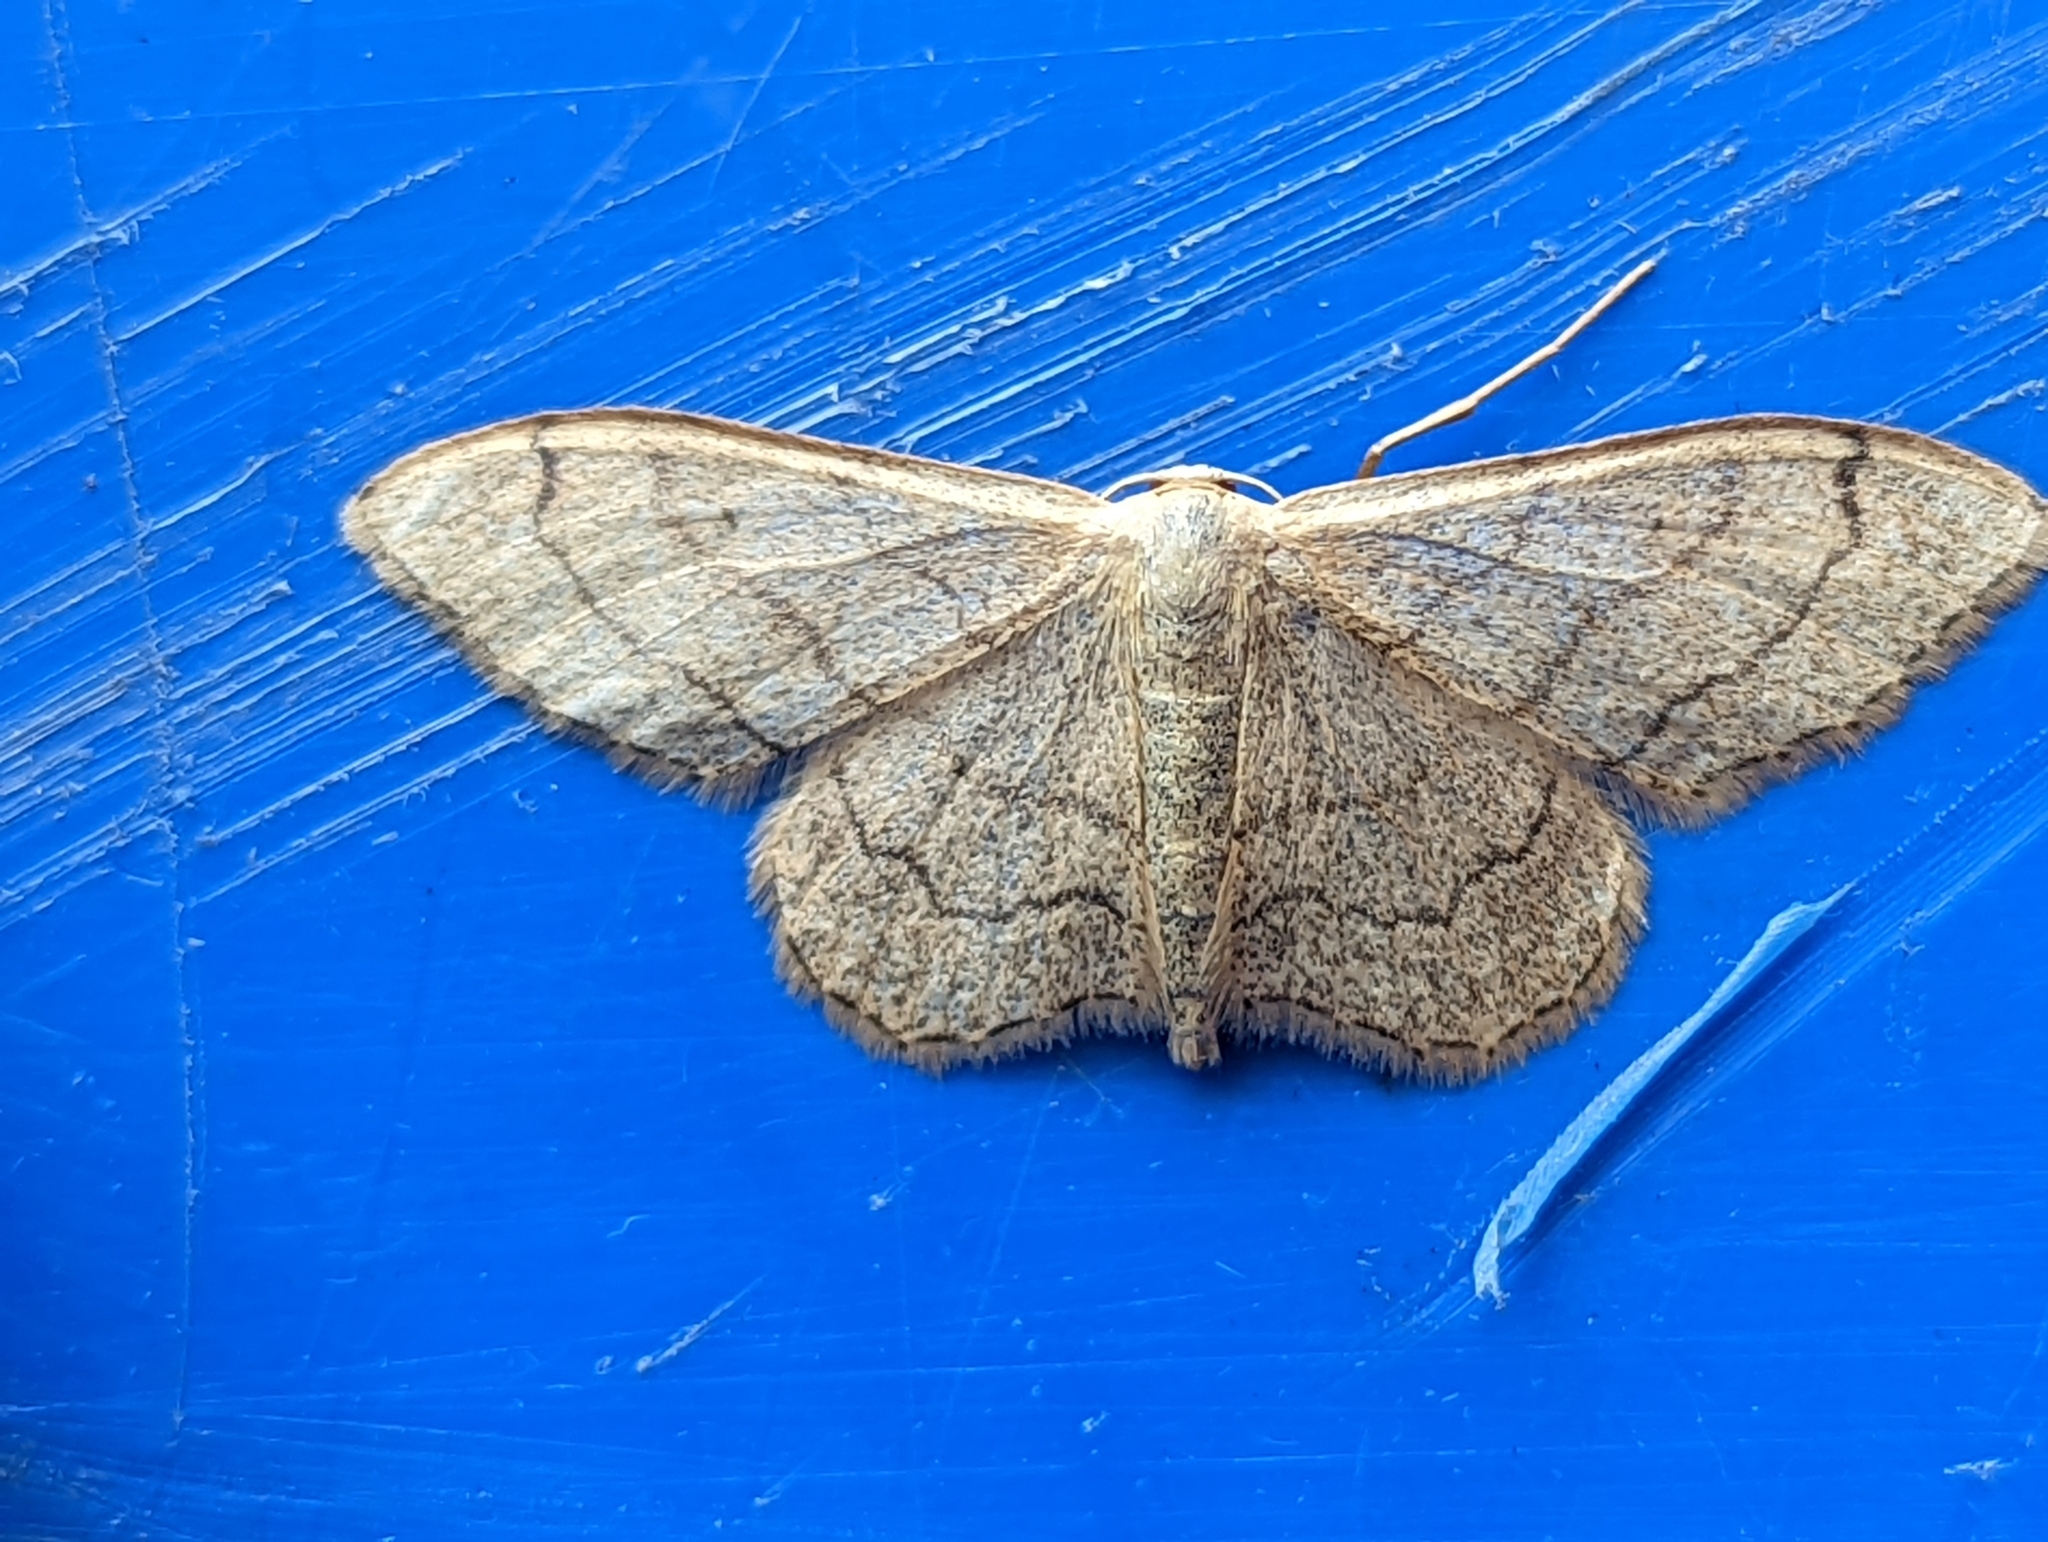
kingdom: Animalia
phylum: Arthropoda
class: Insecta
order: Lepidoptera
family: Geometridae
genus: Idaea
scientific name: Idaea aversata
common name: Riband wave
